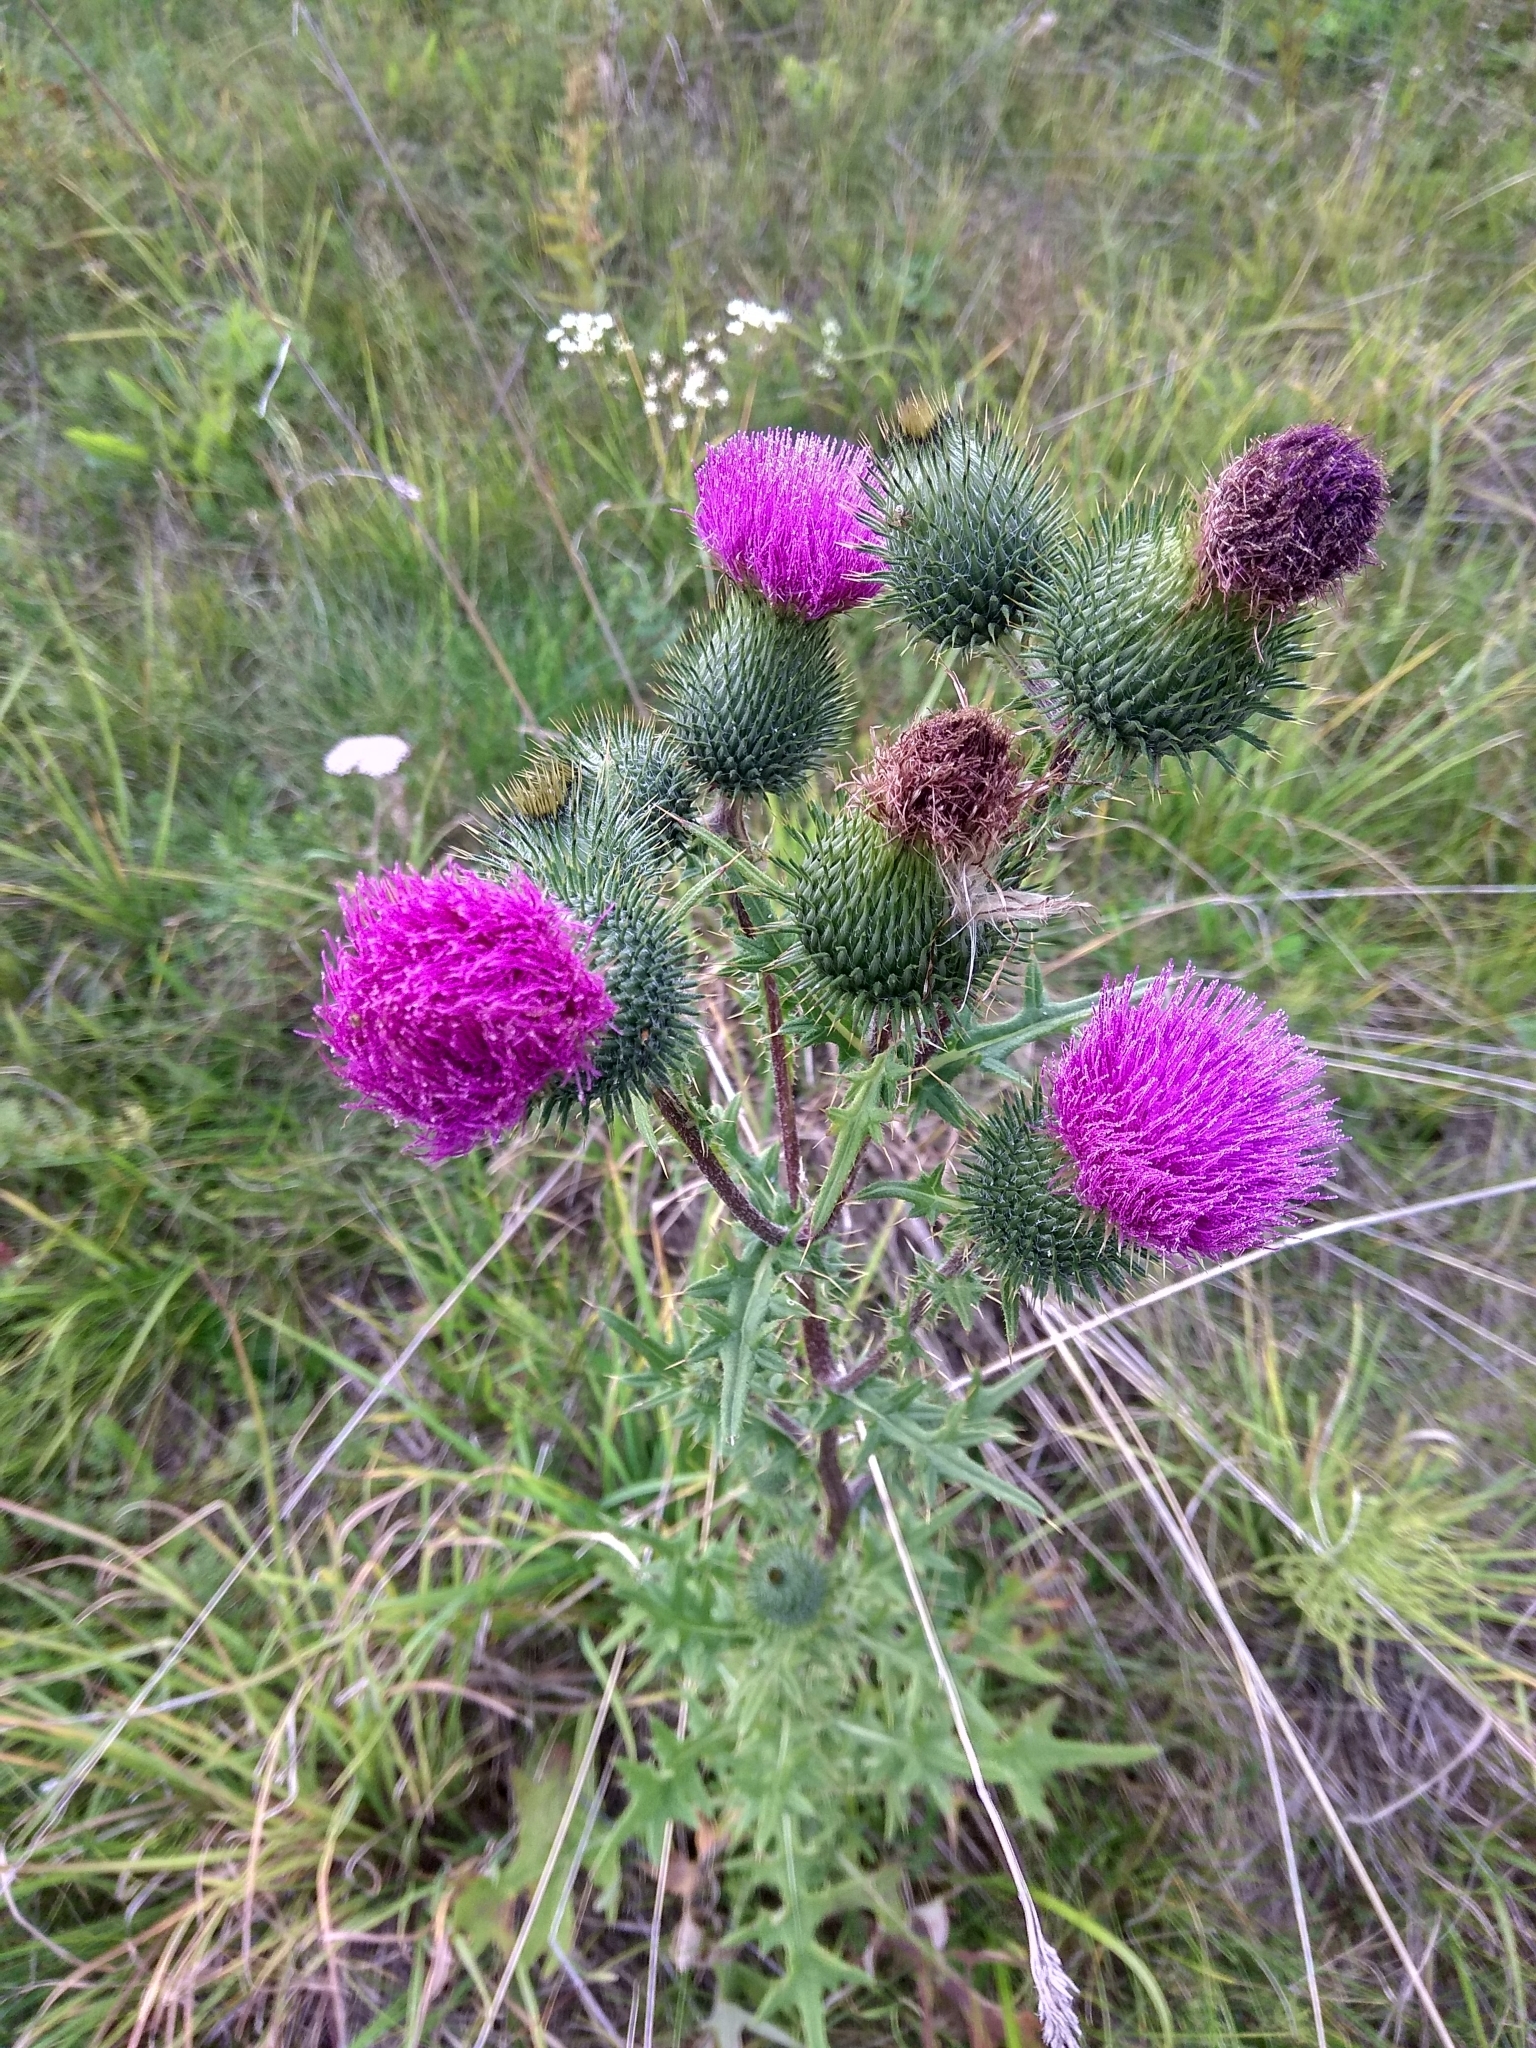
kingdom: Plantae
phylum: Tracheophyta
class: Magnoliopsida
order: Asterales
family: Asteraceae
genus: Cirsium
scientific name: Cirsium vulgare
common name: Bull thistle
